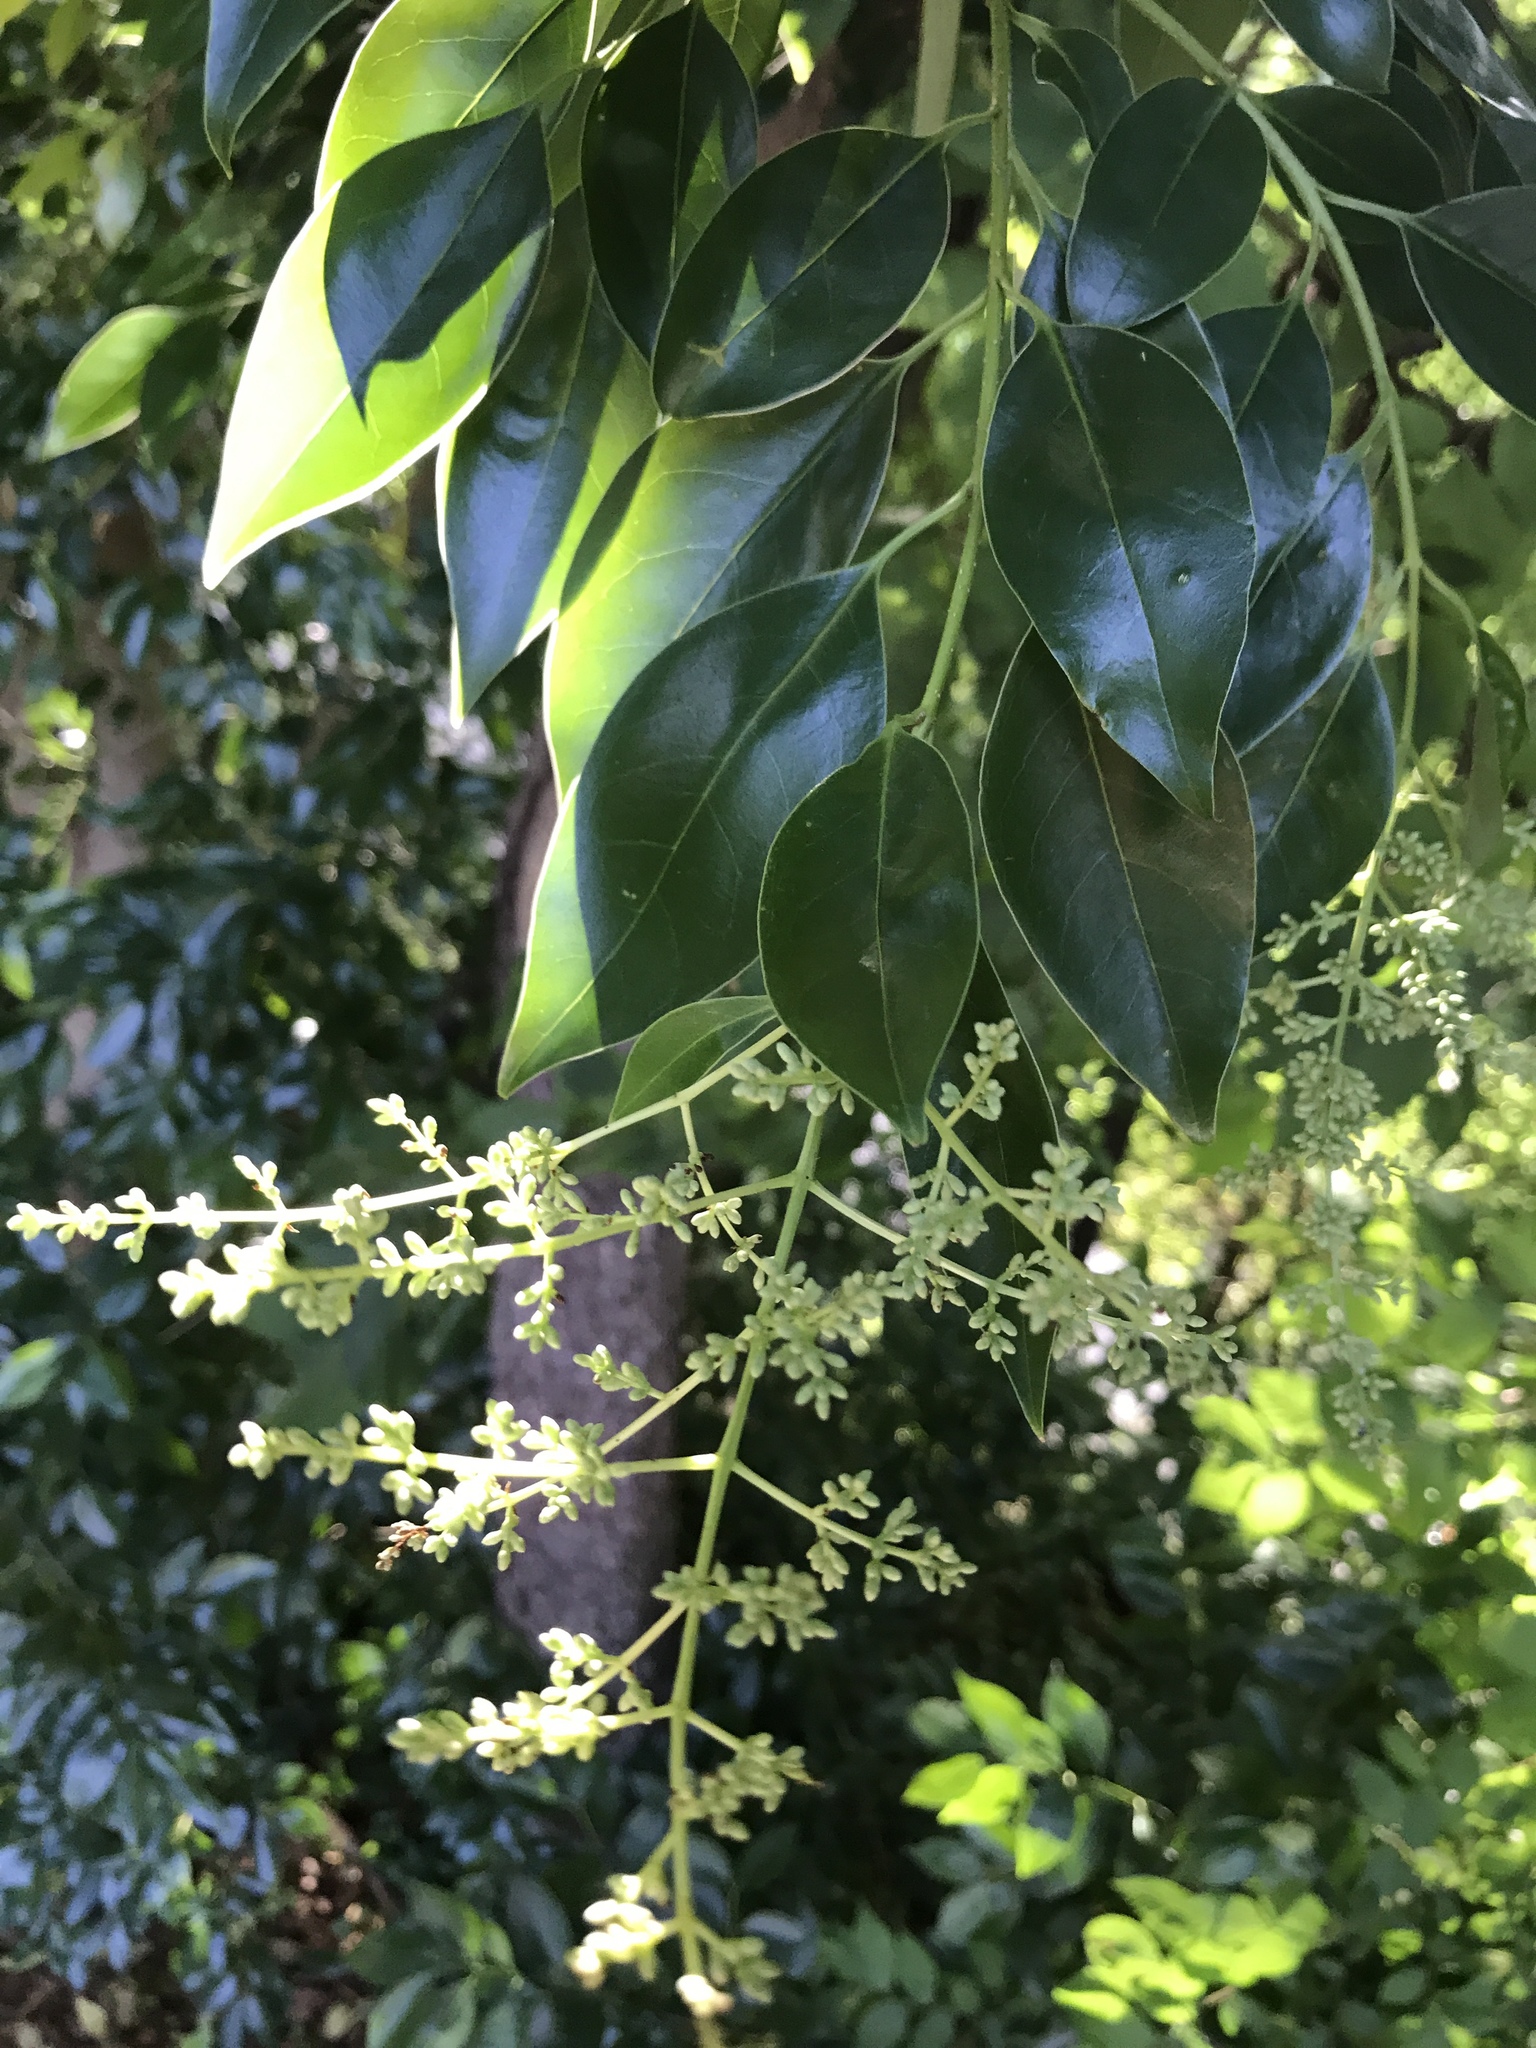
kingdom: Plantae
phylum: Tracheophyta
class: Magnoliopsida
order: Lamiales
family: Oleaceae
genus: Ligustrum
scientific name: Ligustrum lucidum
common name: Glossy privet
